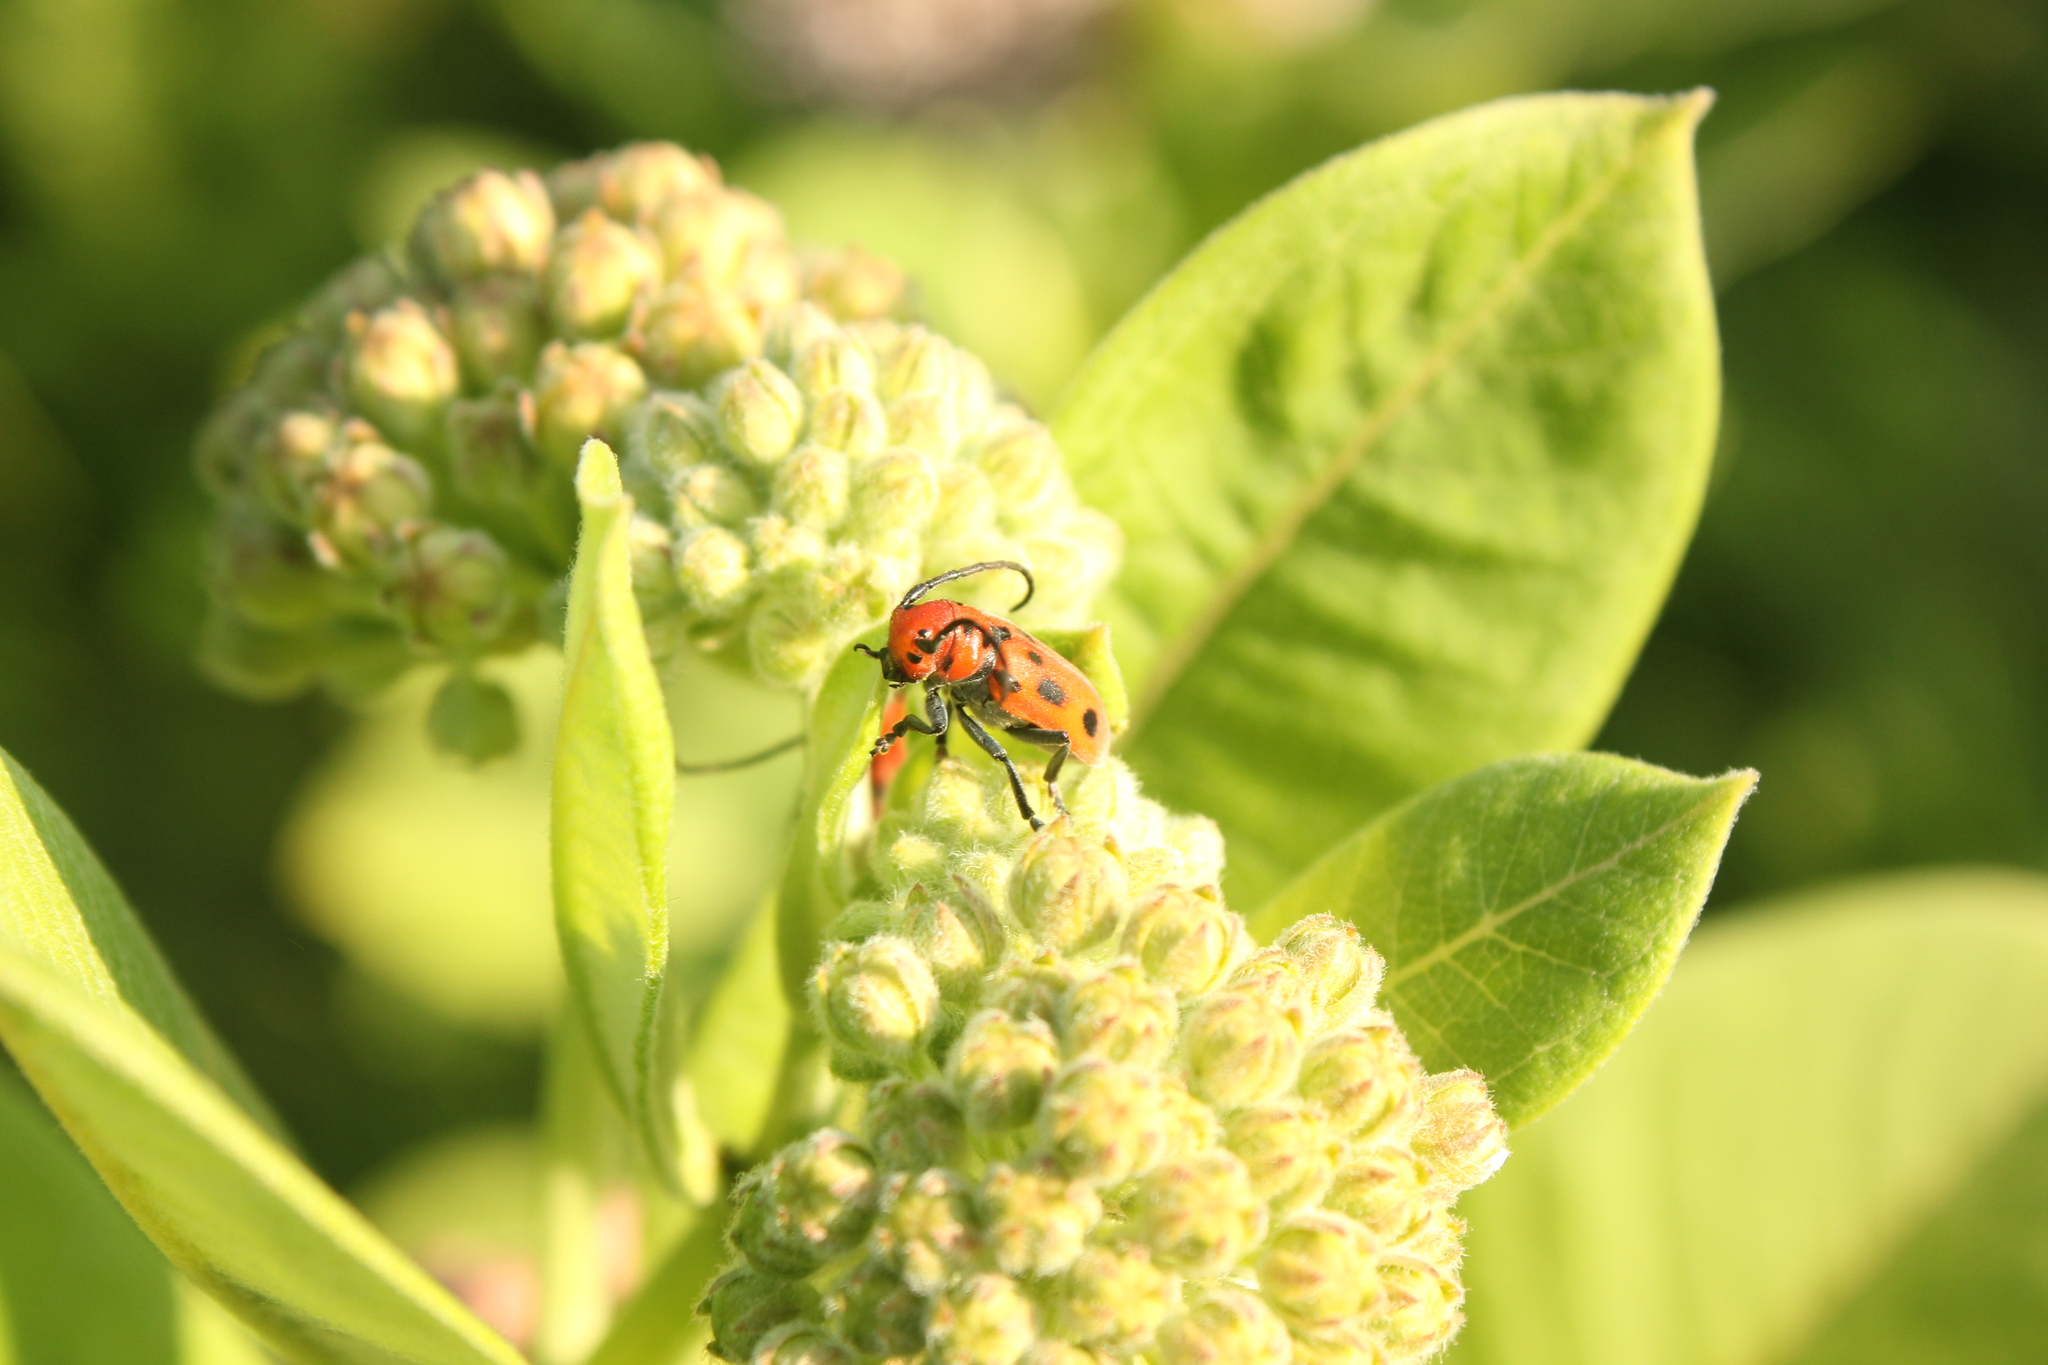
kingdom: Animalia
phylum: Arthropoda
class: Insecta
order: Coleoptera
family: Cerambycidae
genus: Tetraopes
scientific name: Tetraopes tetrophthalmus
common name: Red milkweed beetle
